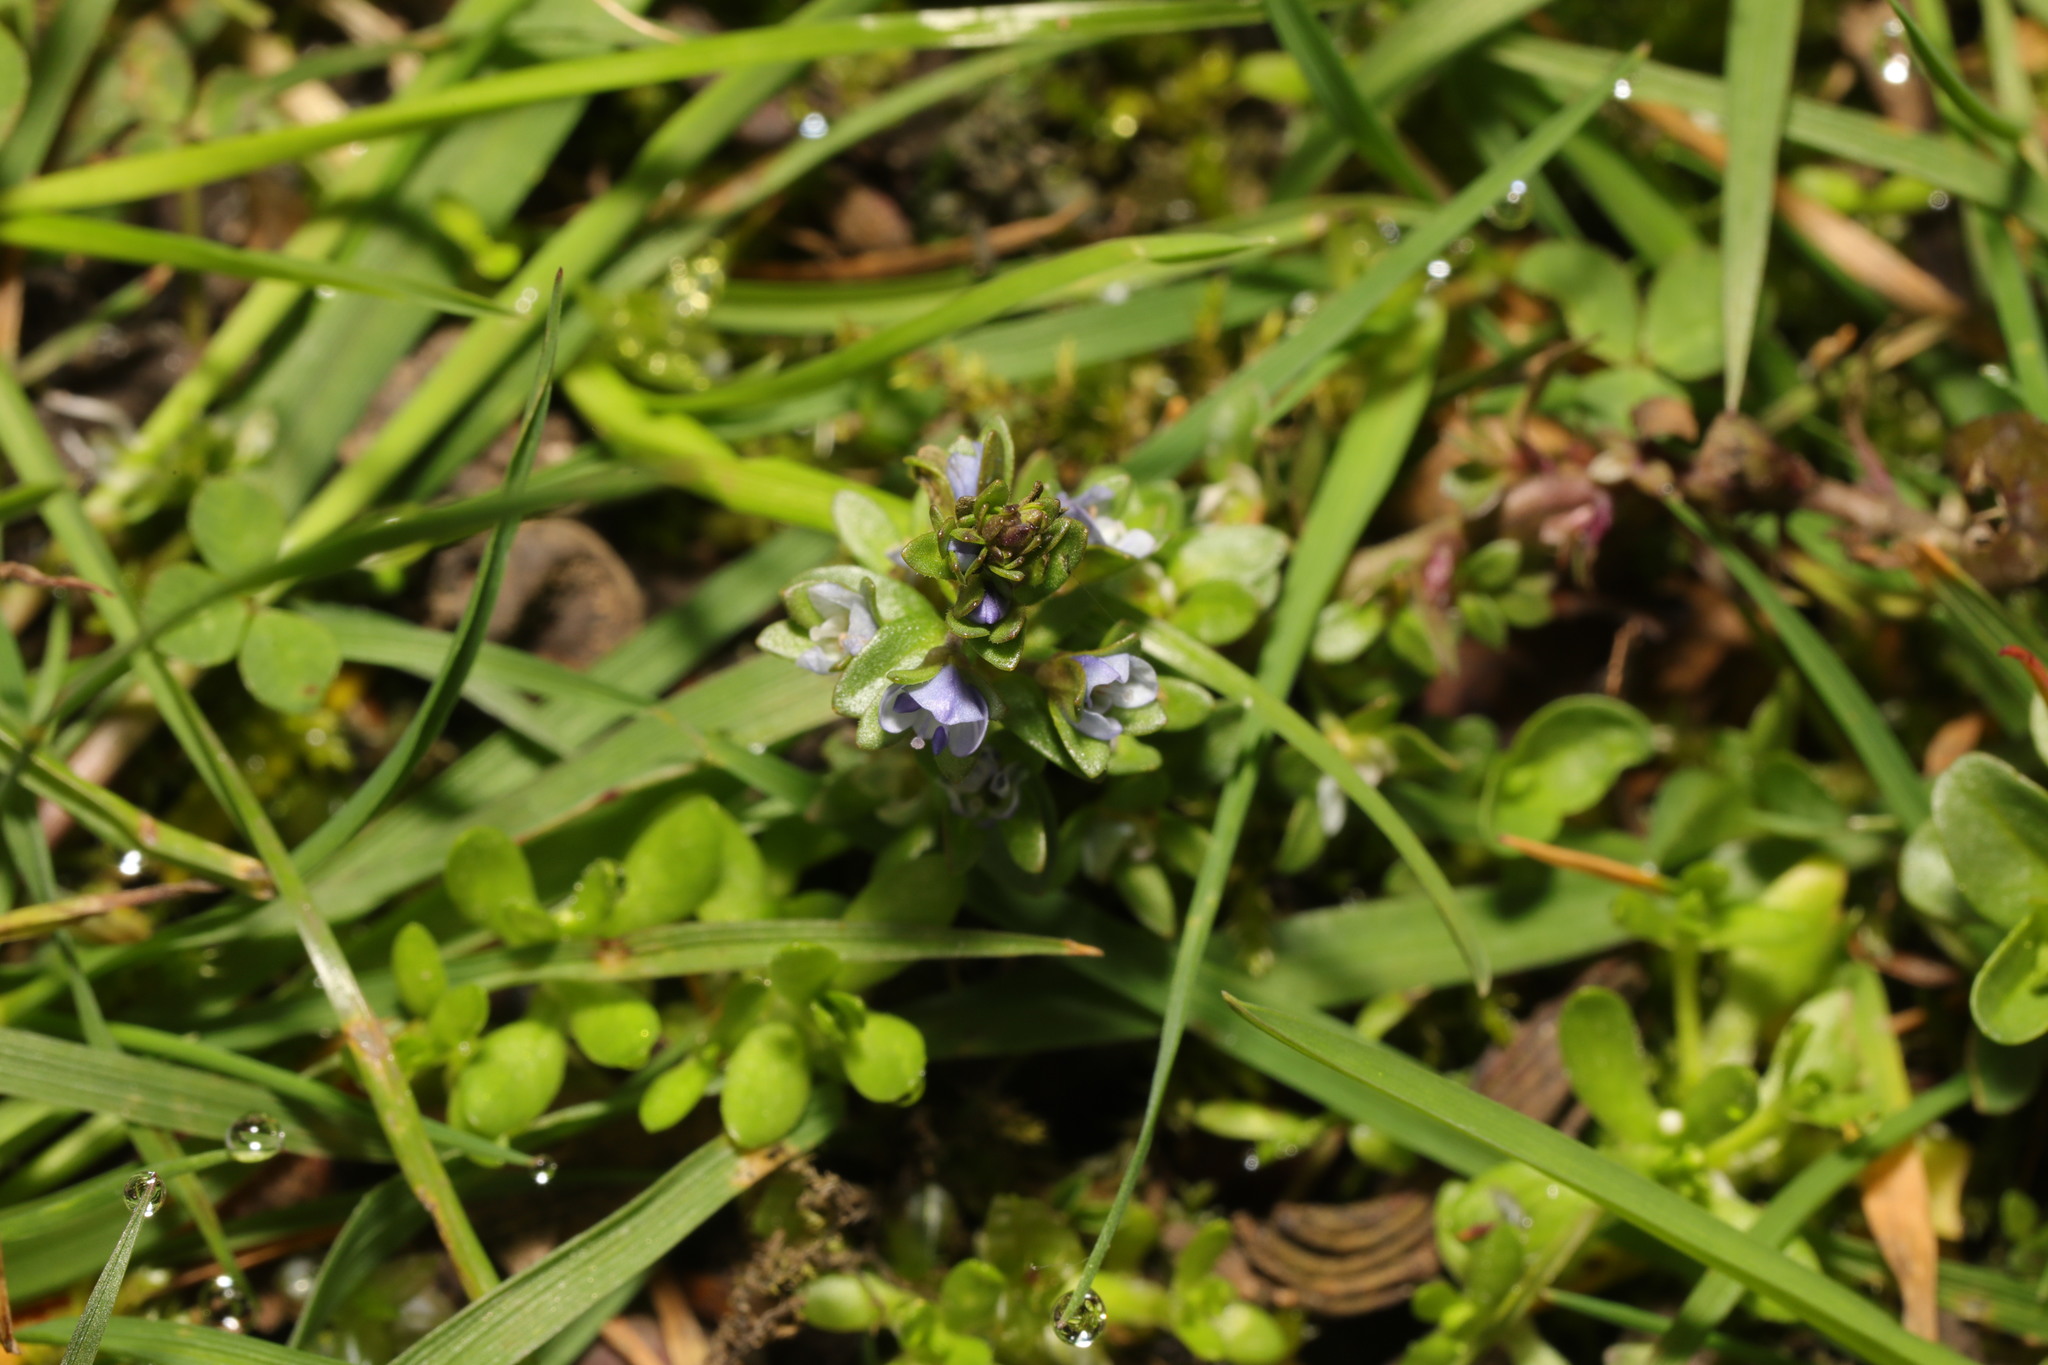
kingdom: Plantae
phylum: Tracheophyta
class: Magnoliopsida
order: Lamiales
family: Plantaginaceae
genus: Veronica
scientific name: Veronica serpyllifolia
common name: Thyme-leaved speedwell
